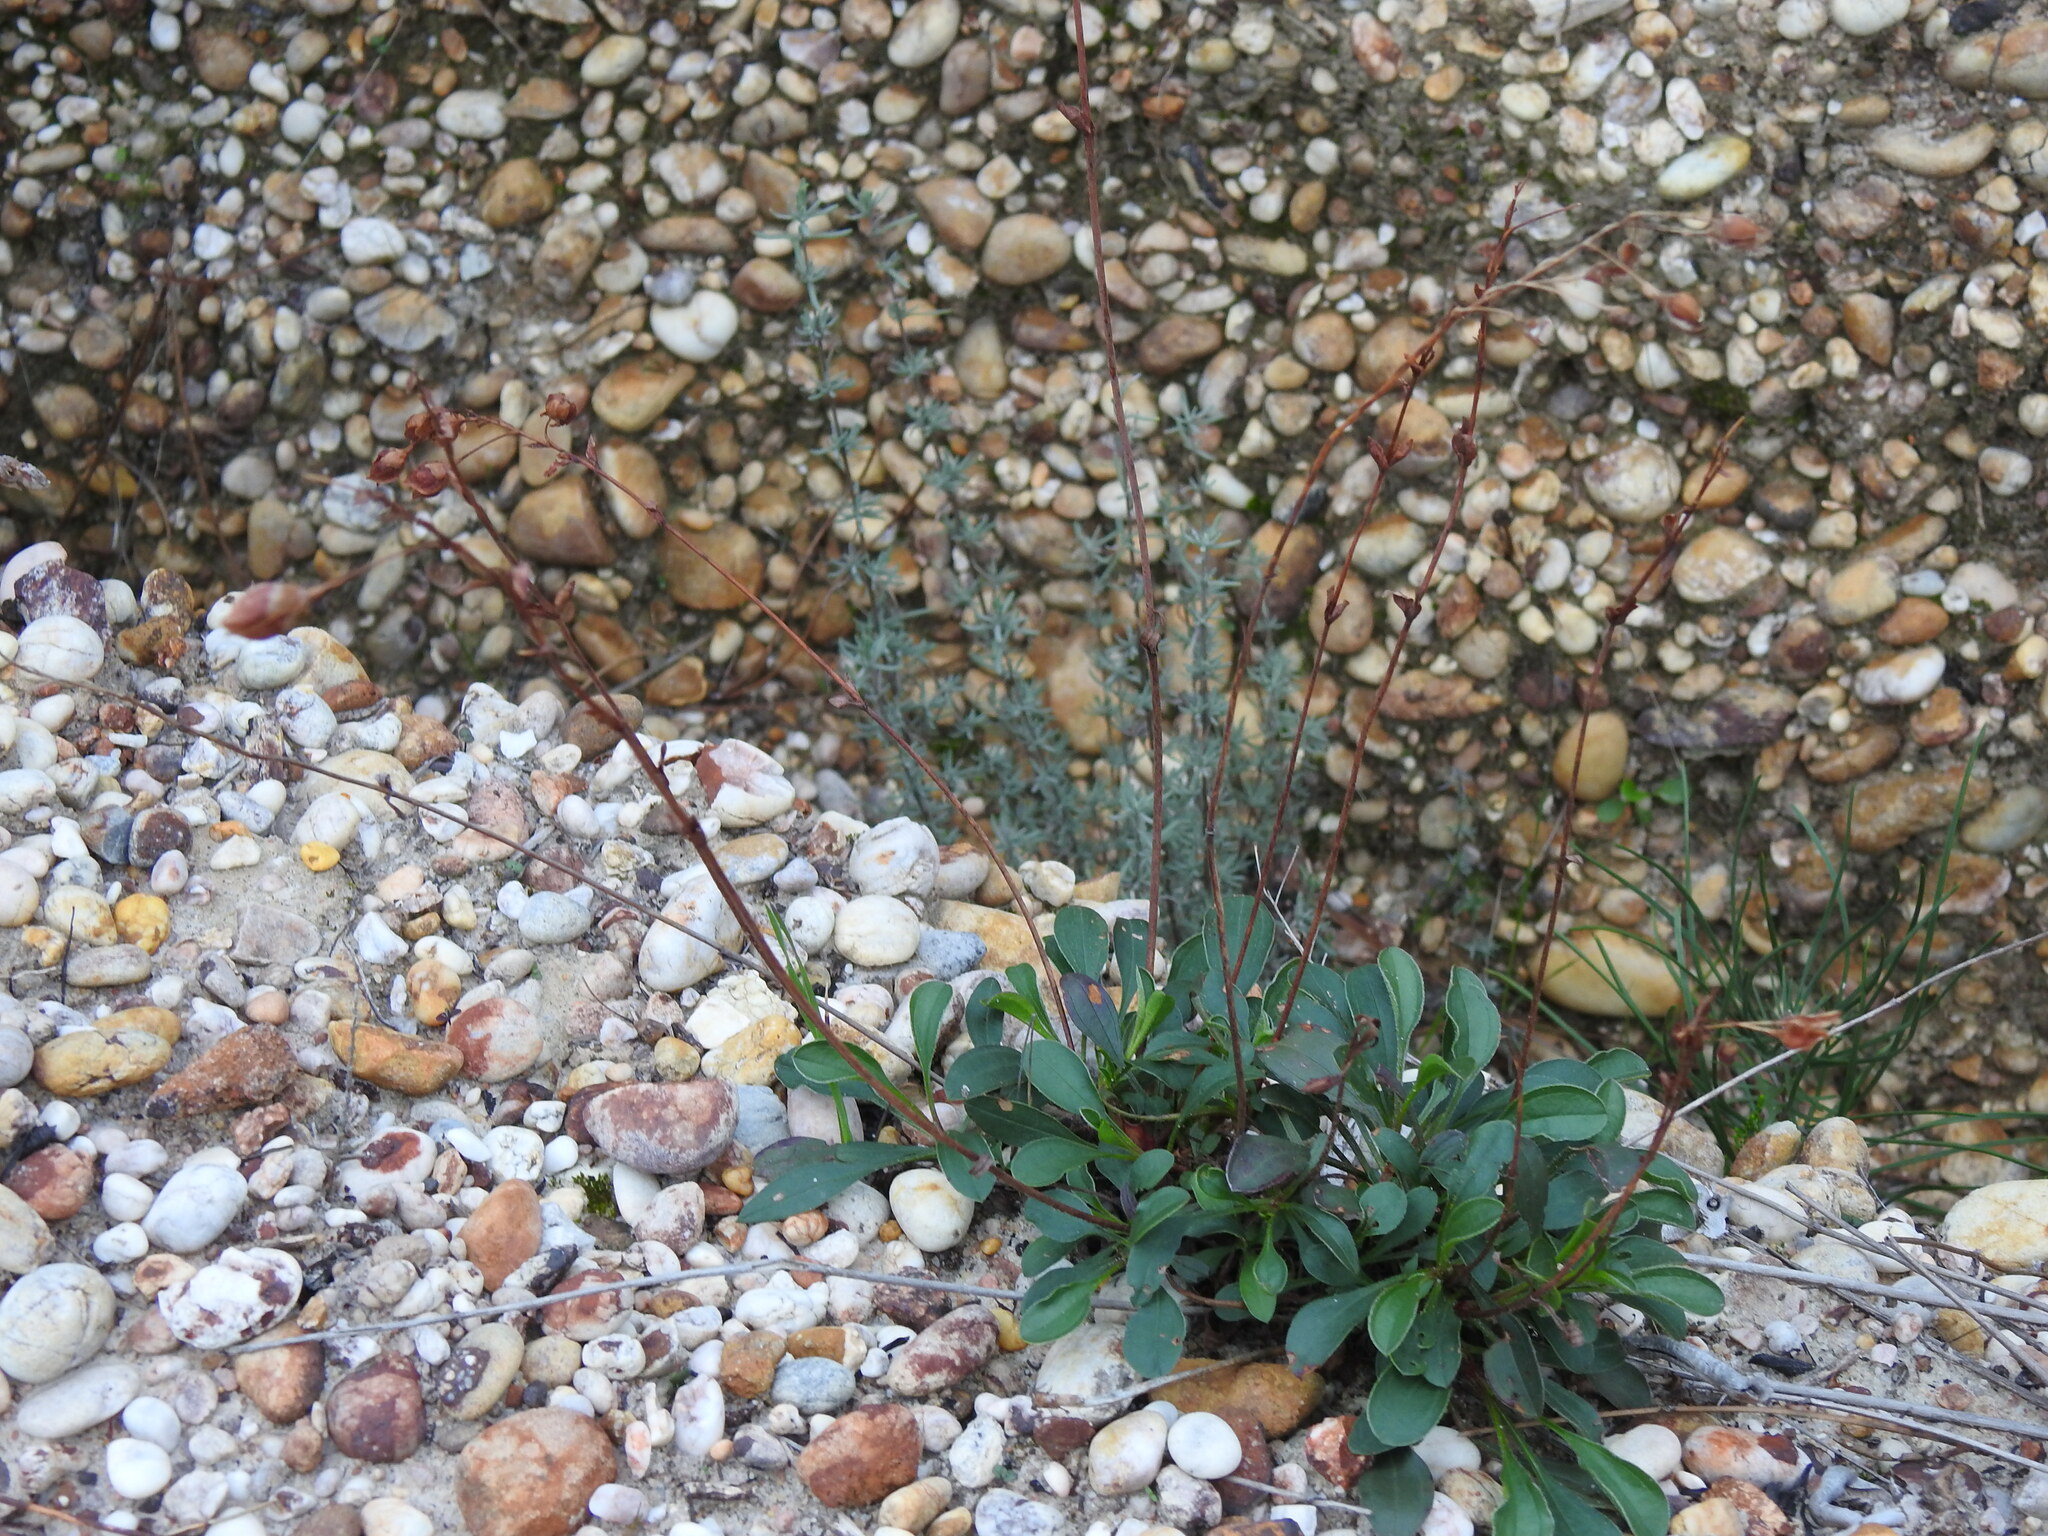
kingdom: Plantae
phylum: Tracheophyta
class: Magnoliopsida
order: Malvales
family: Cistaceae
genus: Tuberaria
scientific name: Tuberaria globulariifolia
